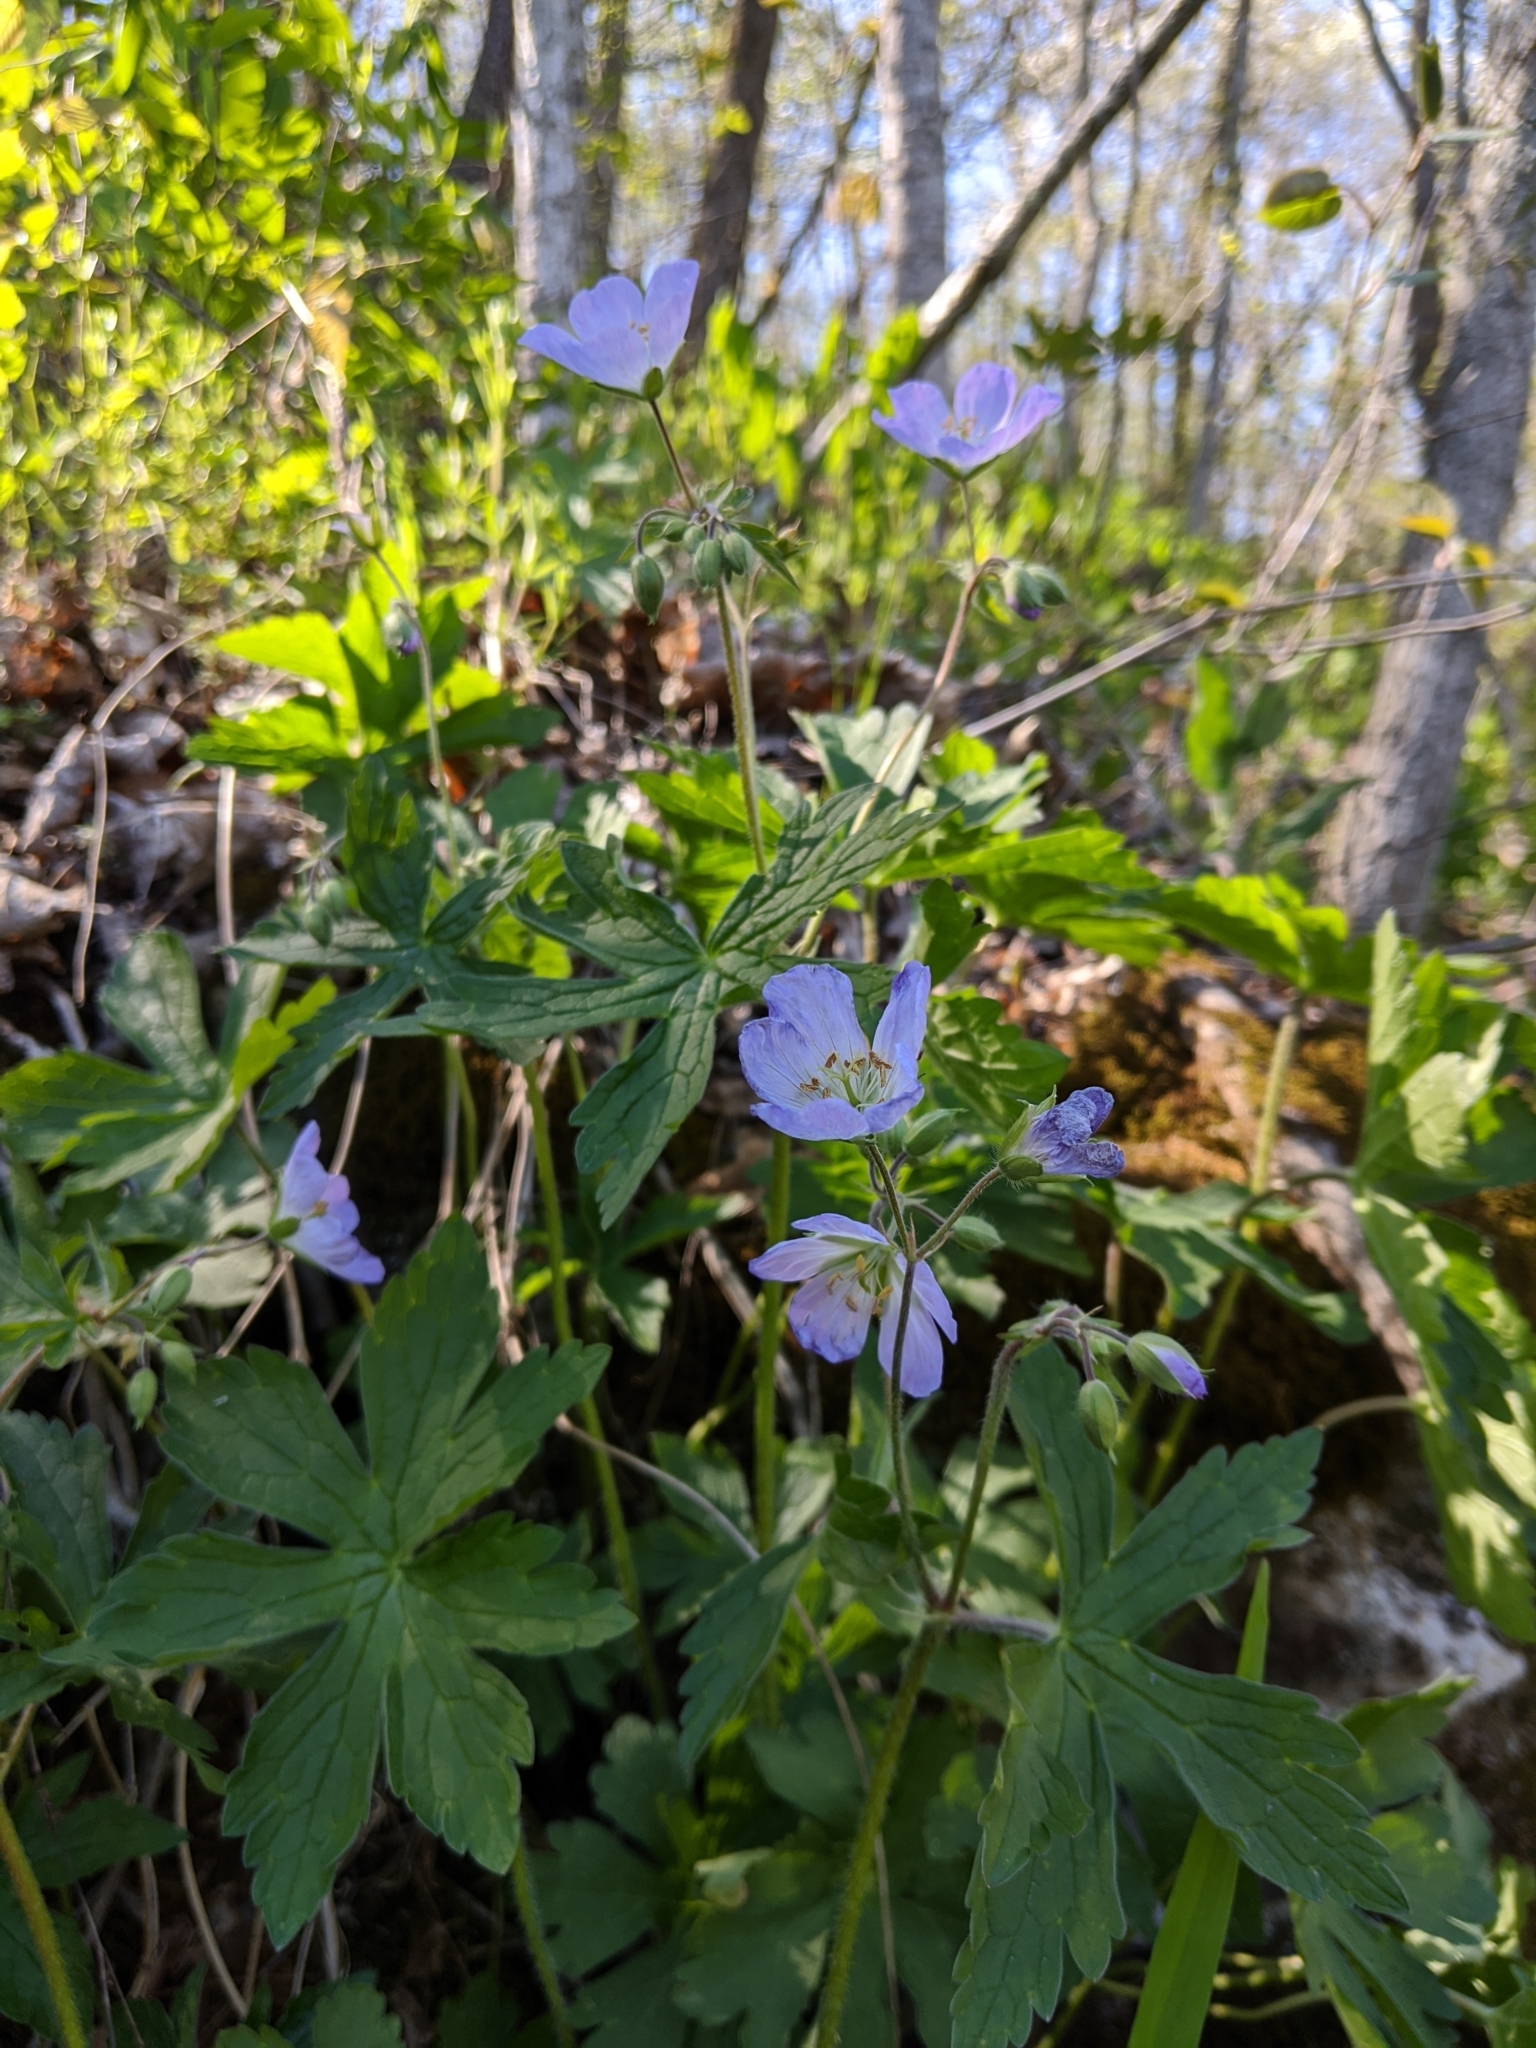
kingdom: Plantae
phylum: Tracheophyta
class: Magnoliopsida
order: Geraniales
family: Geraniaceae
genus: Geranium
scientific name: Geranium maculatum
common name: Spotted geranium
